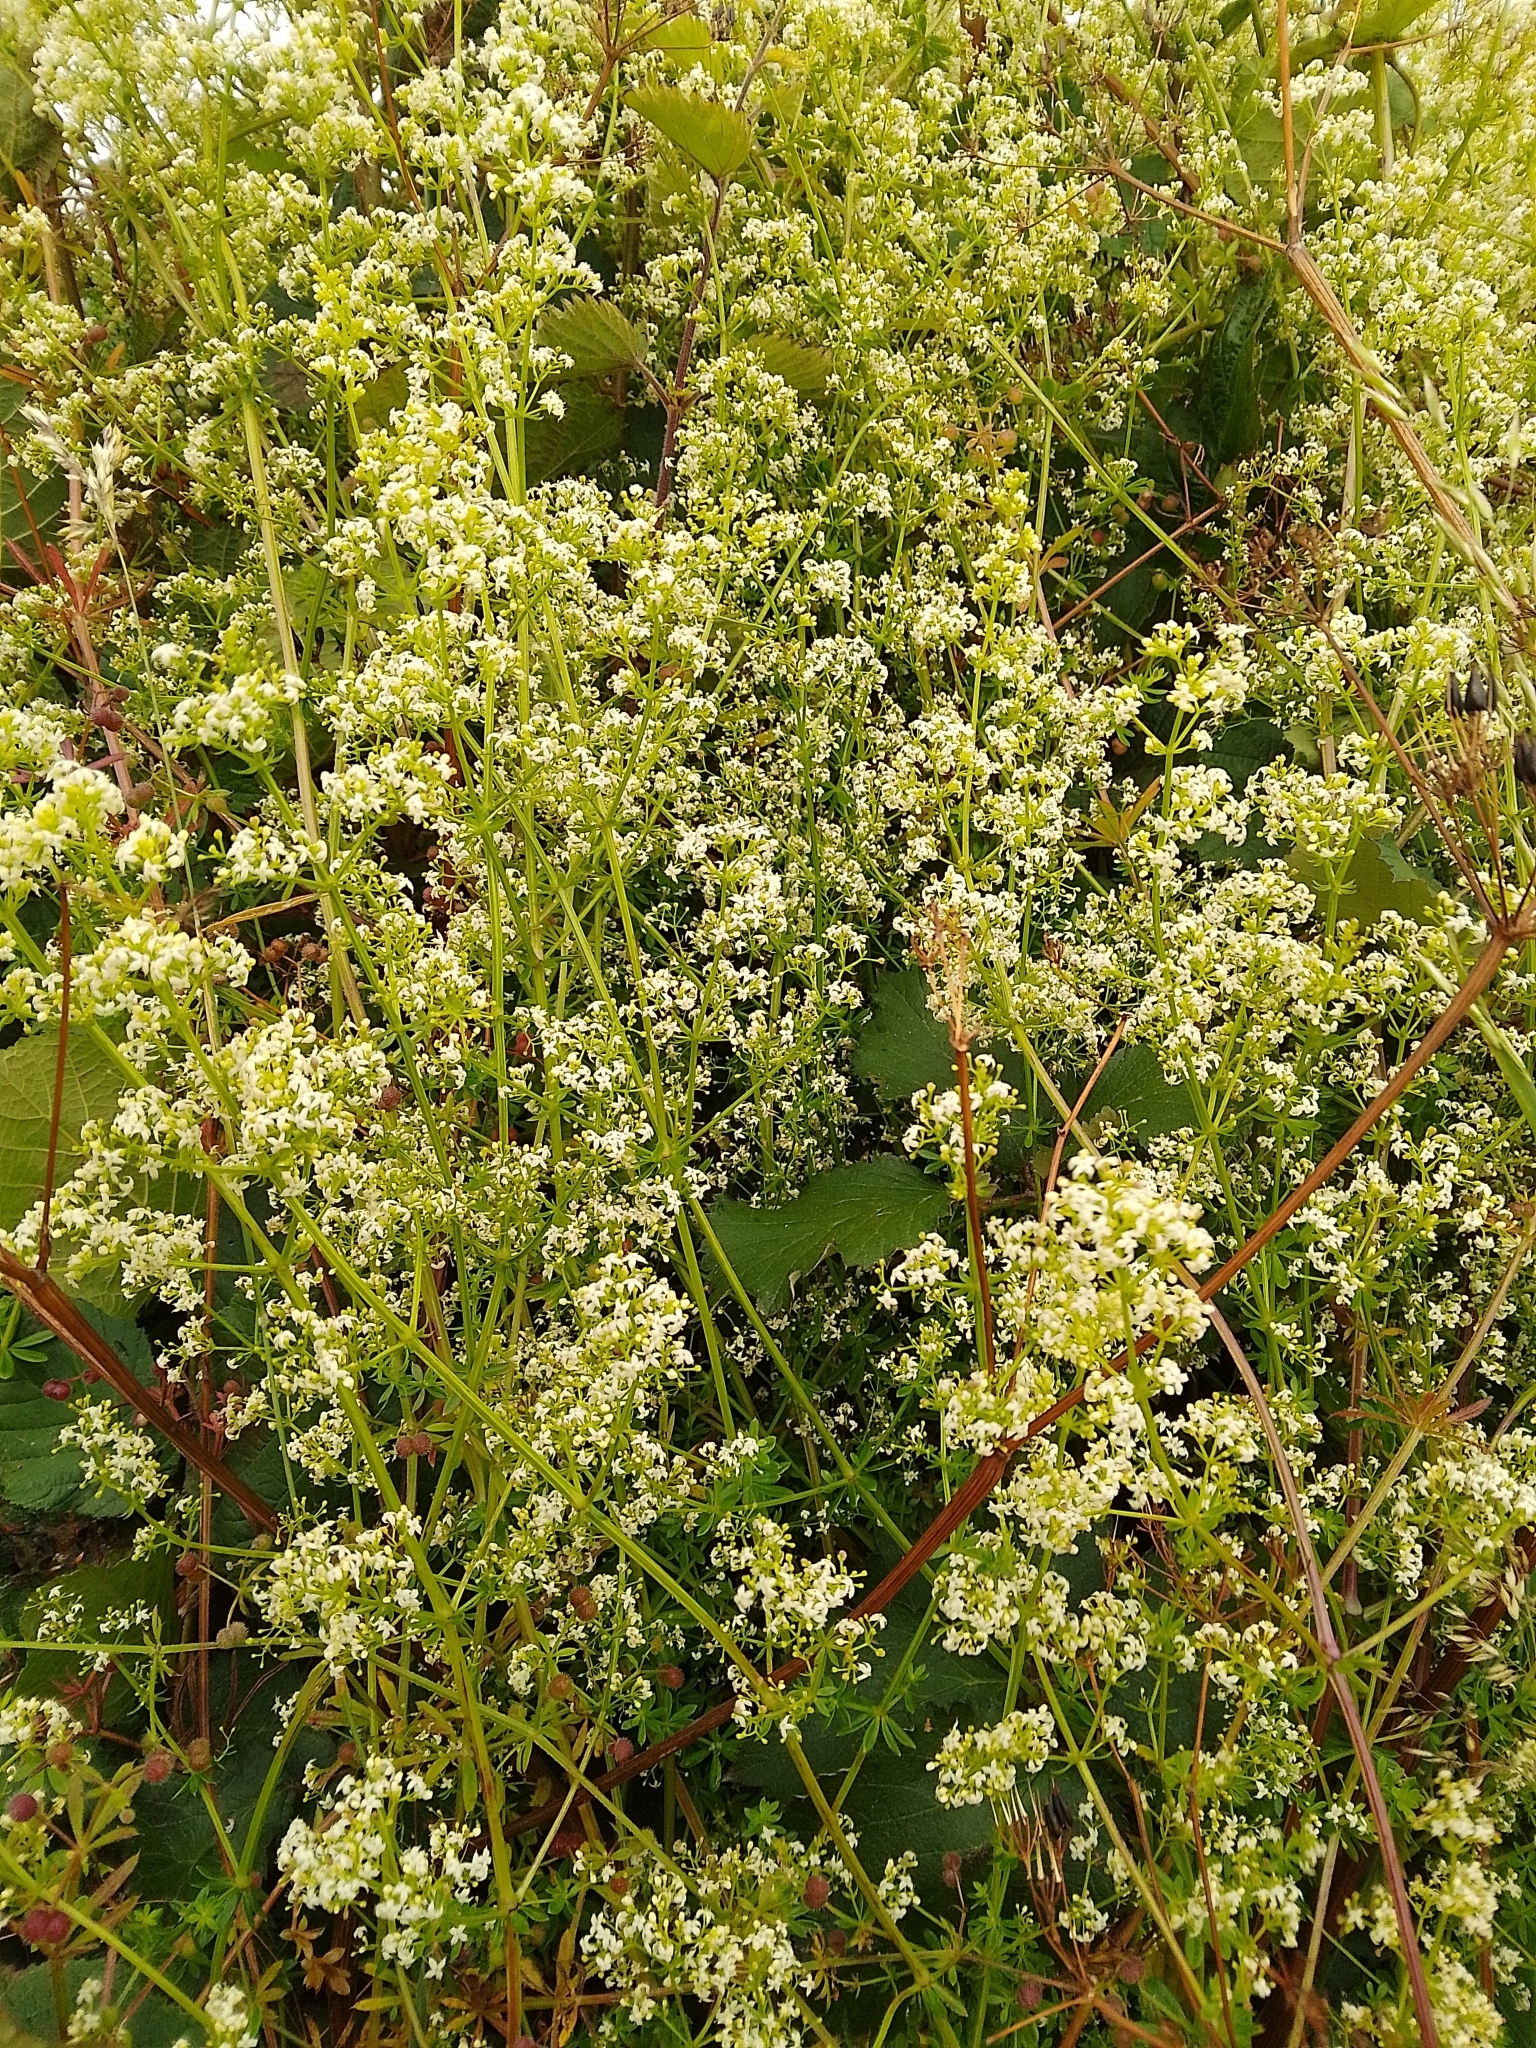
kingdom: Plantae
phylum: Tracheophyta
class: Magnoliopsida
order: Gentianales
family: Rubiaceae
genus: Galium
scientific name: Galium mollugo
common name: Hedge bedstraw
